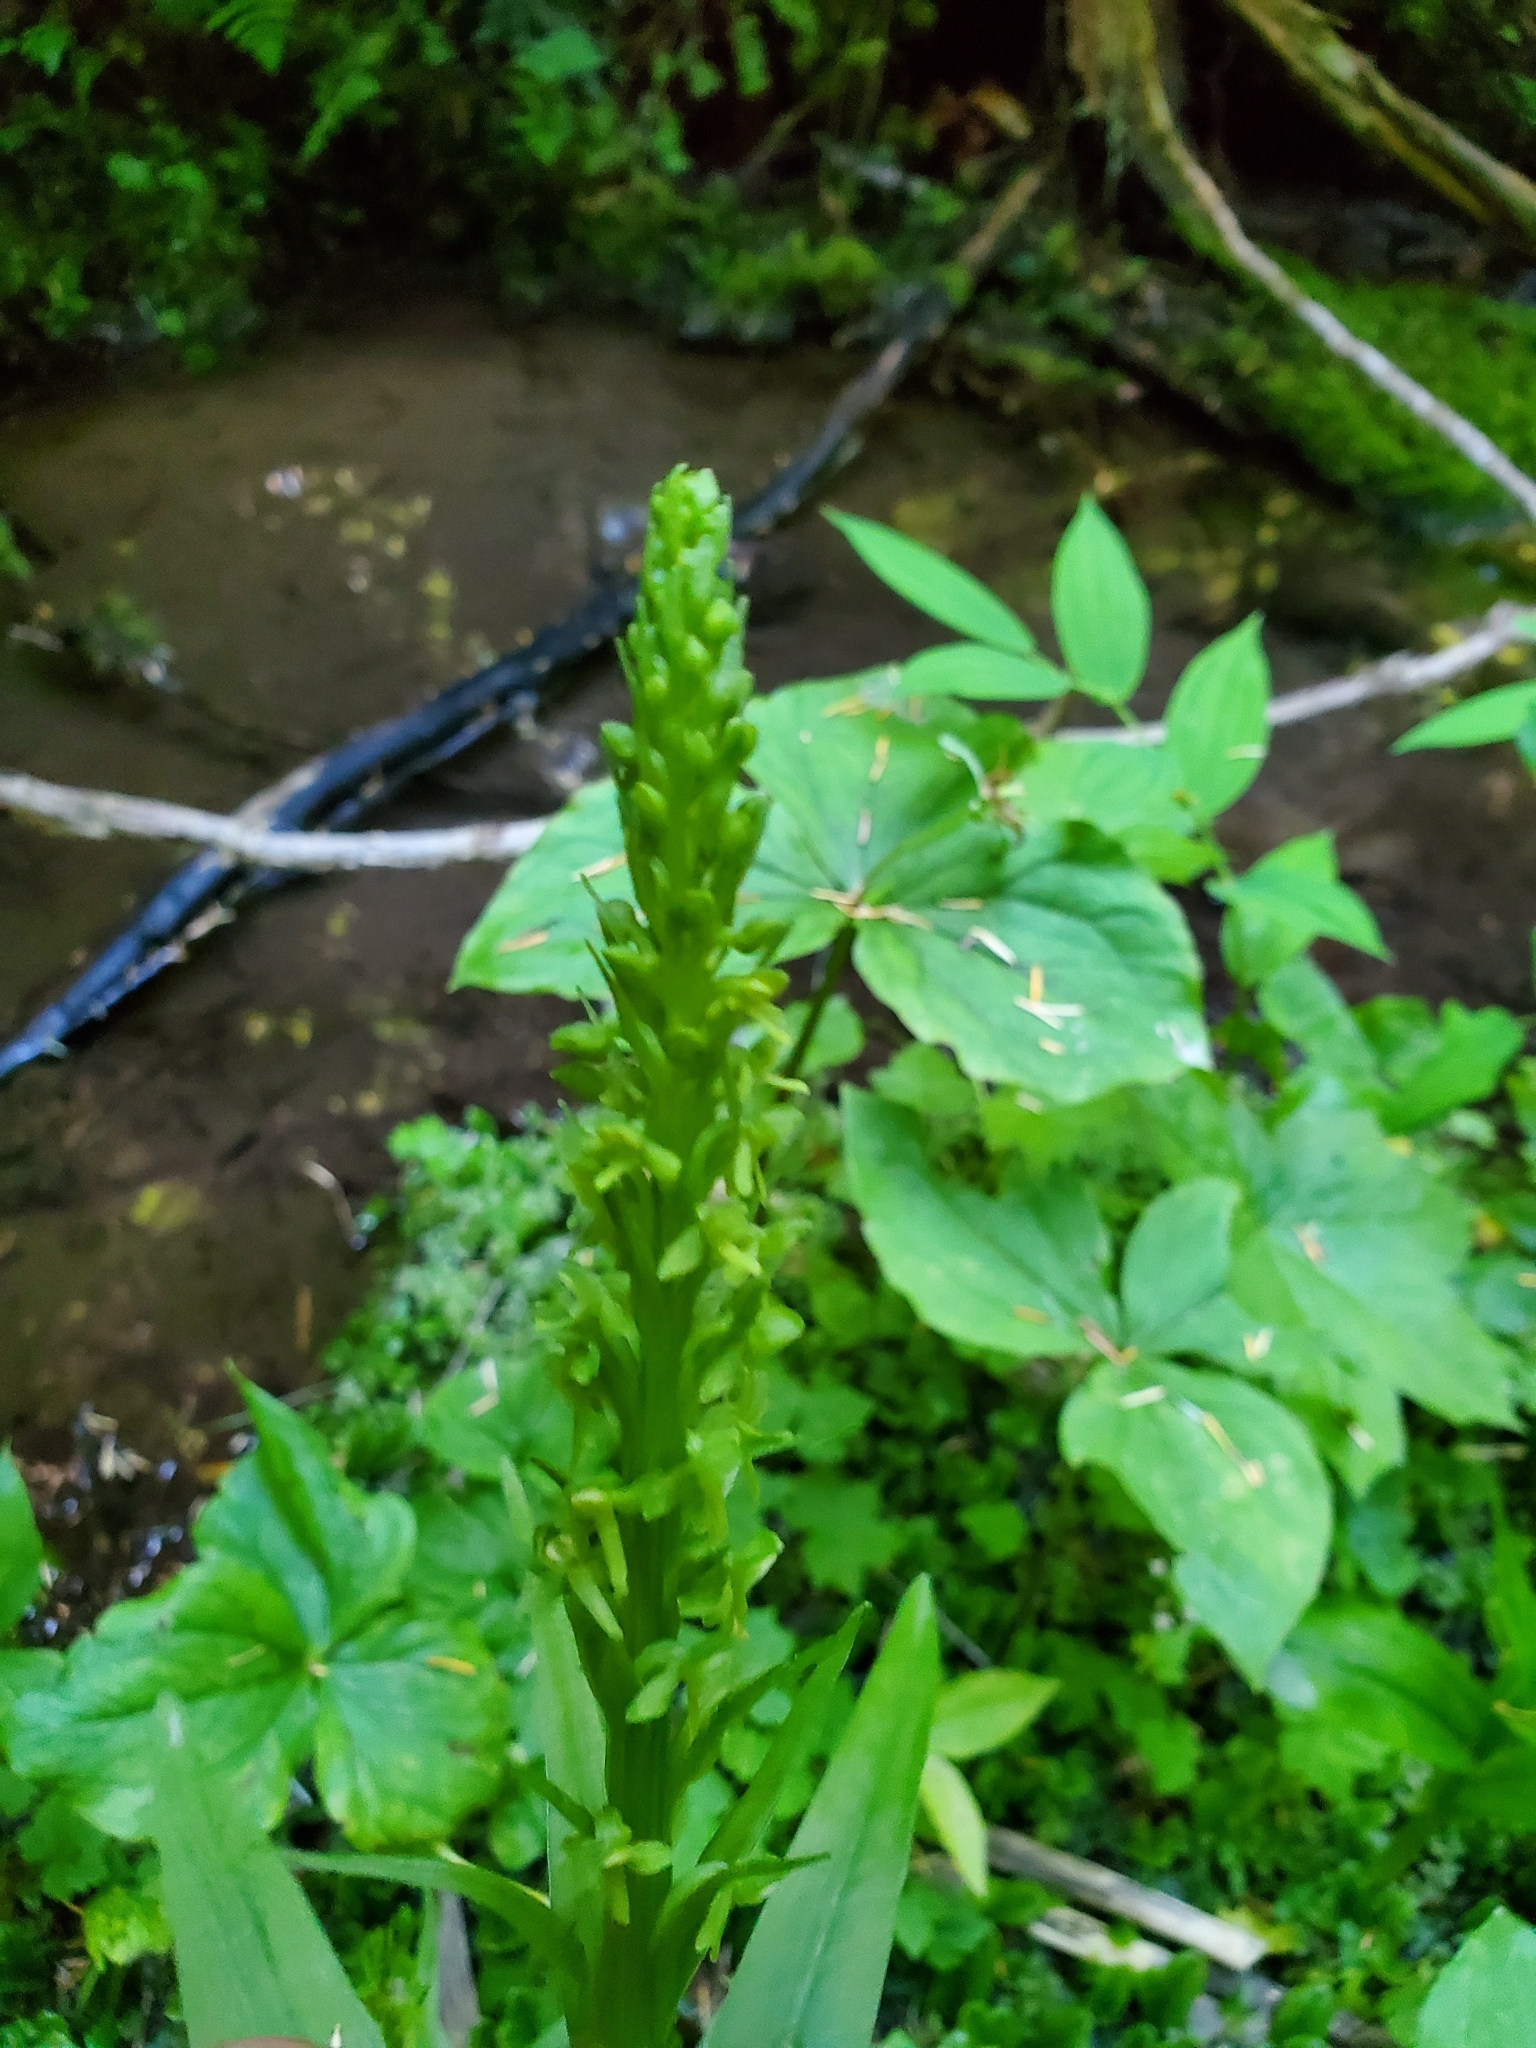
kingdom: Plantae
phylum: Tracheophyta
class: Liliopsida
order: Asparagales
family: Orchidaceae
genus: Platanthera
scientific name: Platanthera stricta
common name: Slender bog orchid
